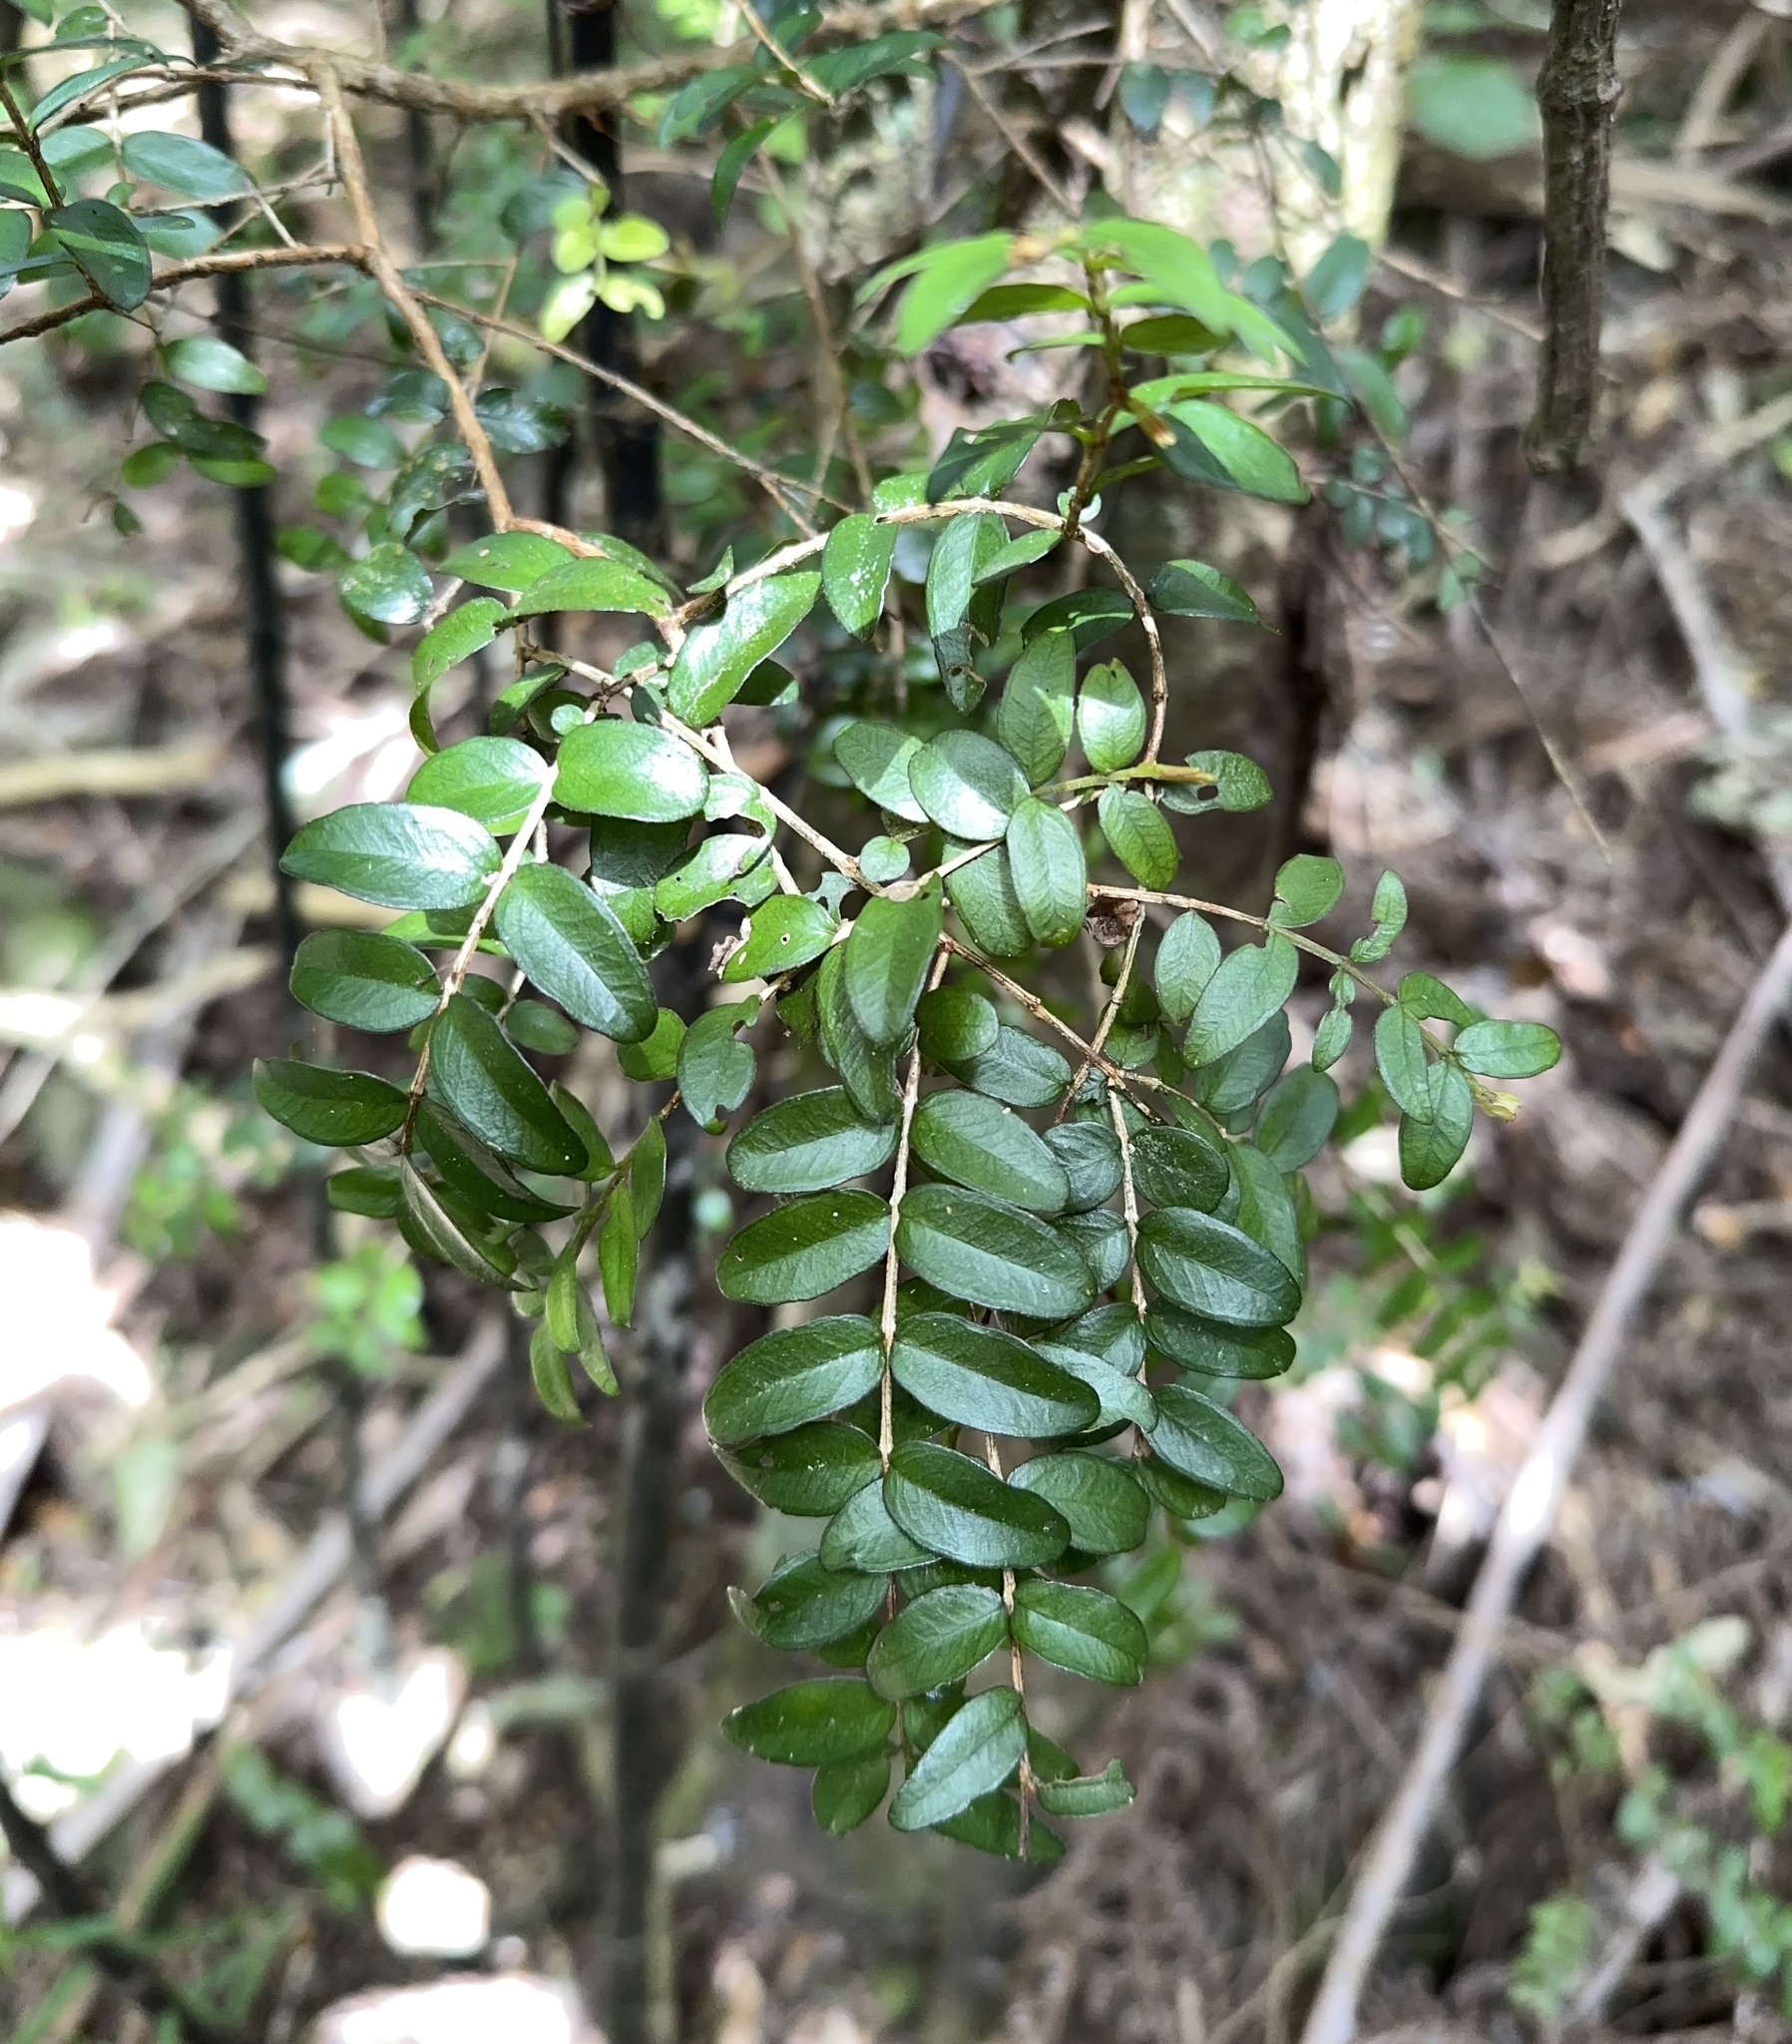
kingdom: Plantae
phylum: Tracheophyta
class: Magnoliopsida
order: Myrtales
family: Myrtaceae
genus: Metrosideros
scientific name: Metrosideros diffusa
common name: Small ratavine
